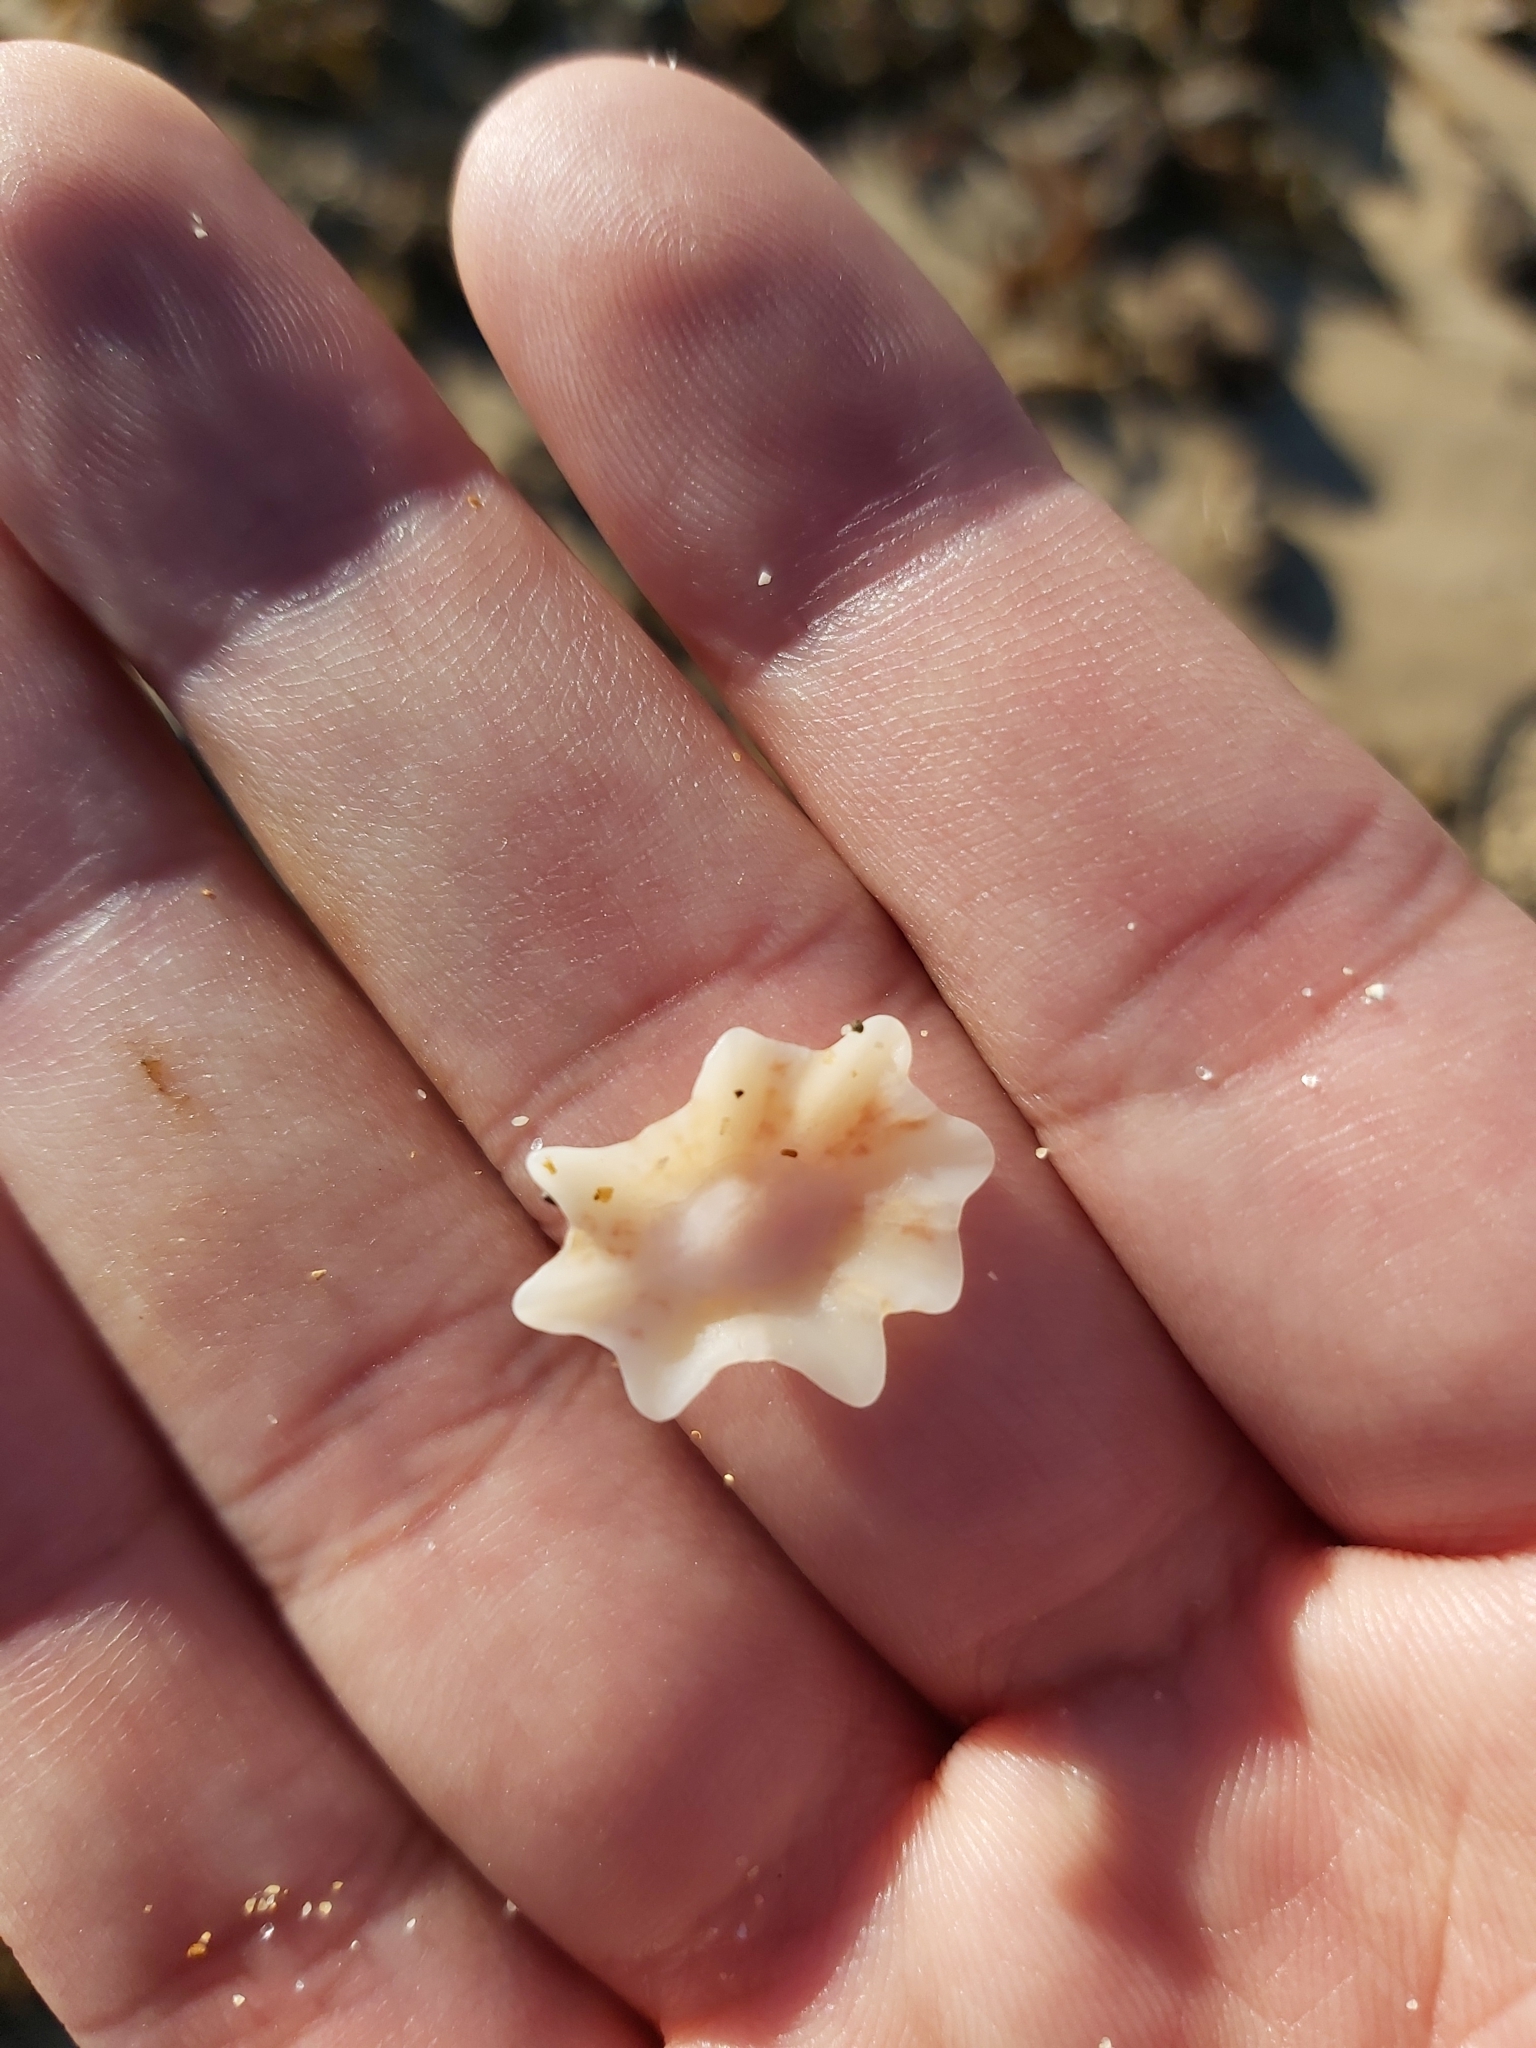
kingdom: Animalia
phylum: Mollusca
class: Gastropoda
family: Patellidae
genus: Scutellastra
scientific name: Scutellastra chapmani
